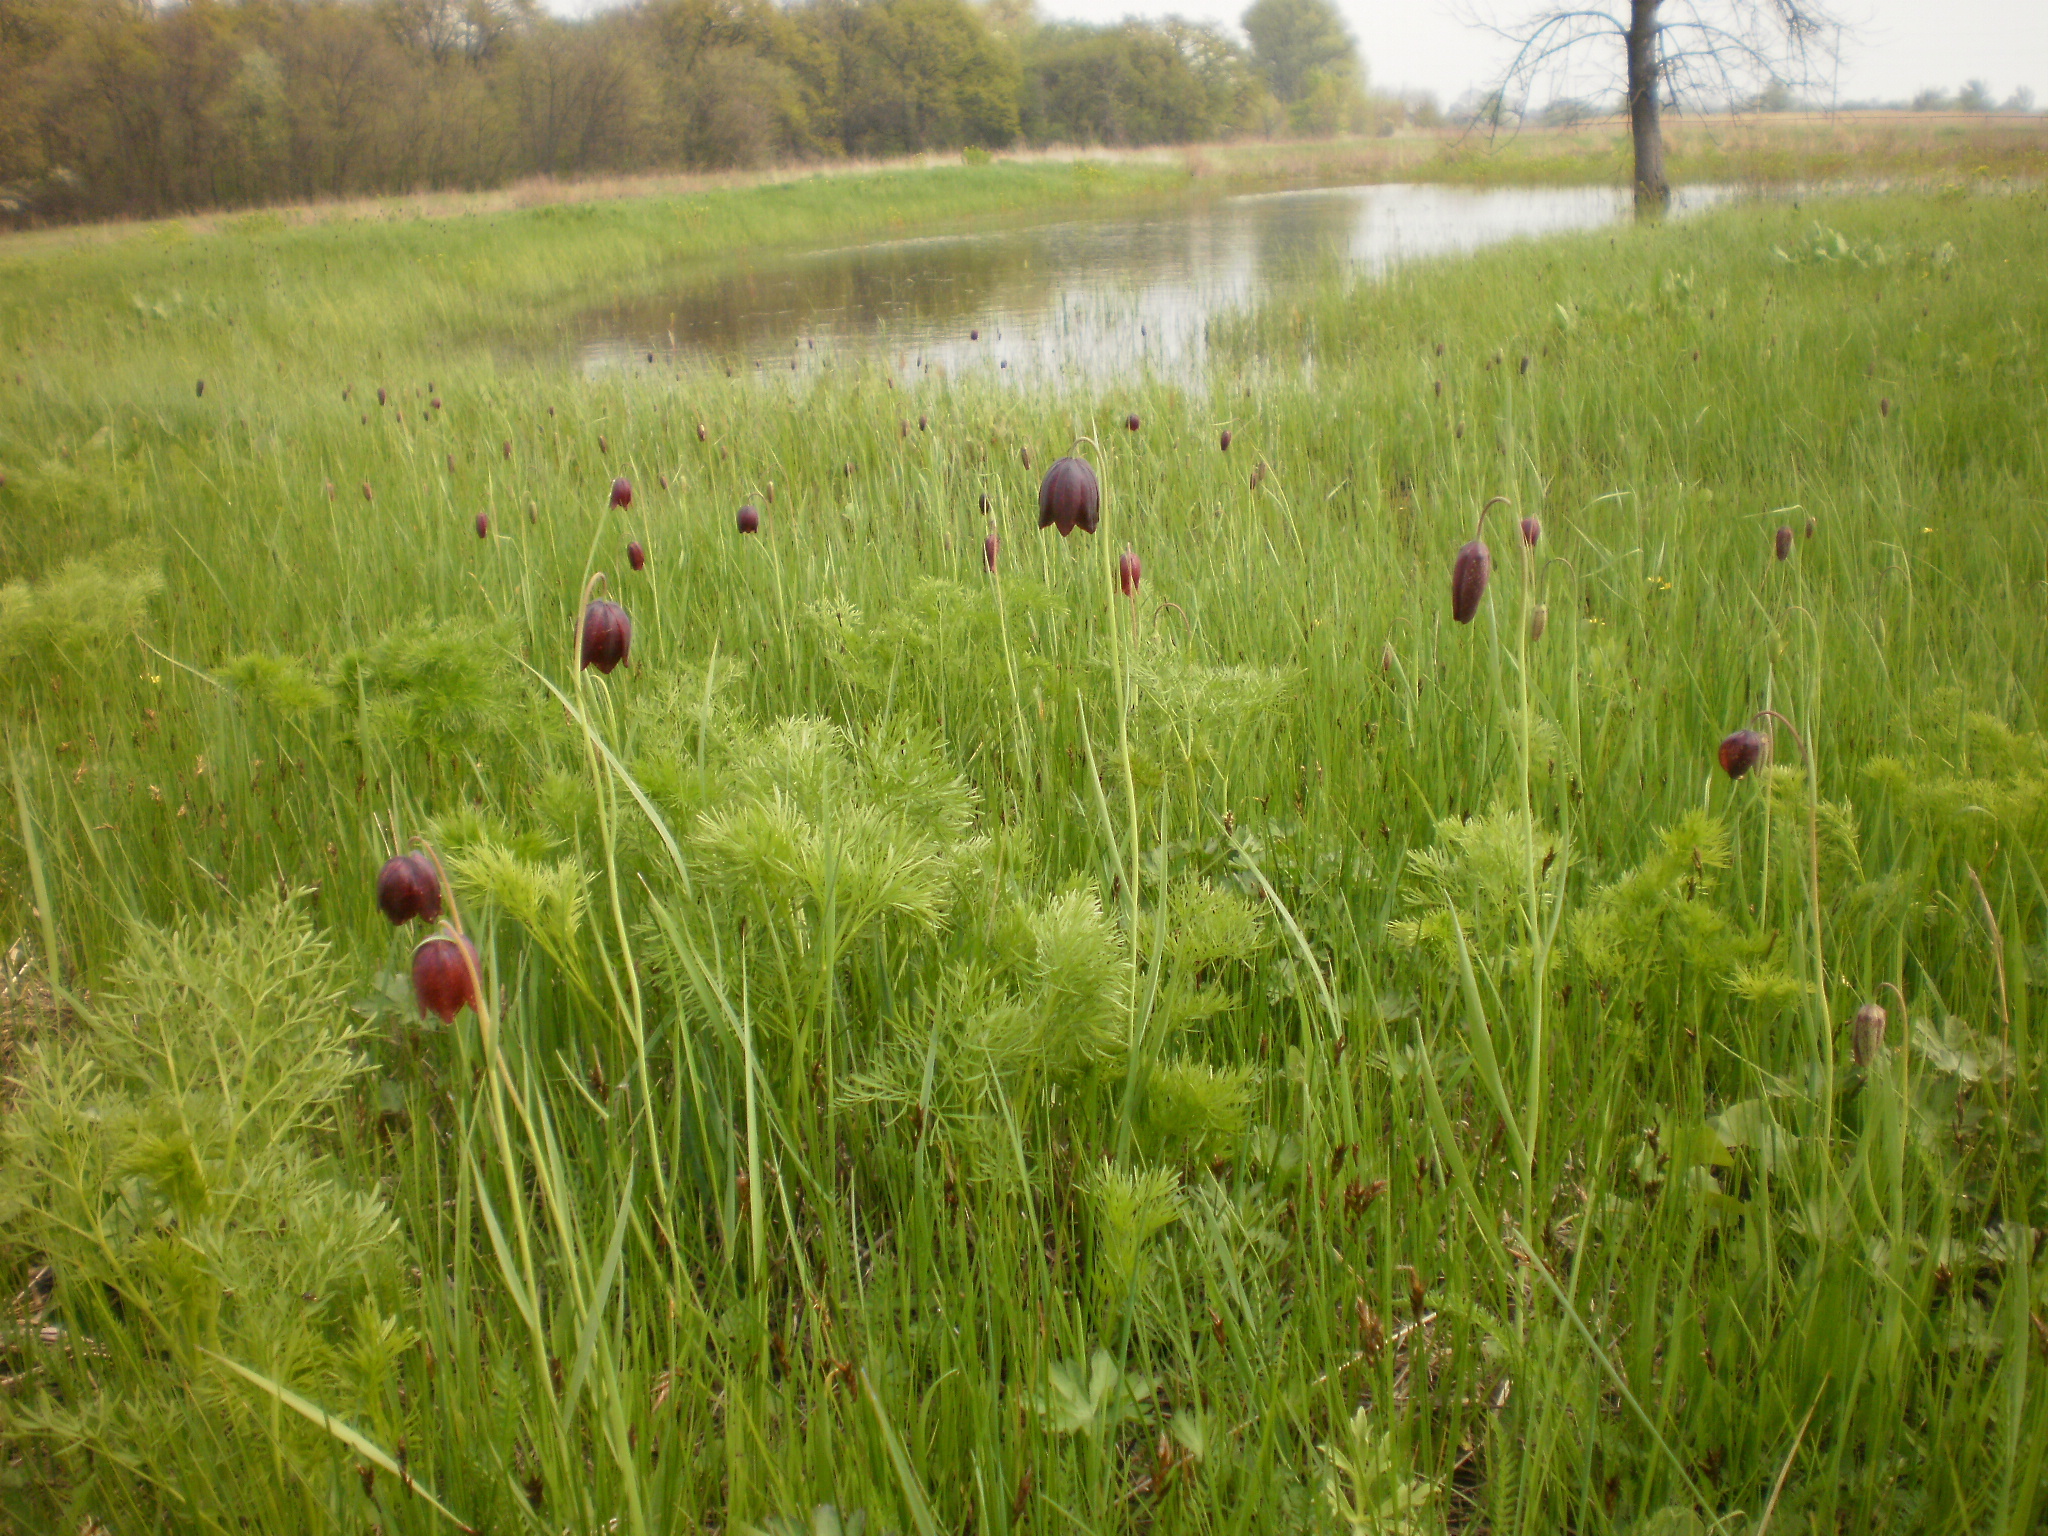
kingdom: Plantae
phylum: Tracheophyta
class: Liliopsida
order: Liliales
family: Liliaceae
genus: Fritillaria
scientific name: Fritillaria meleagroides
